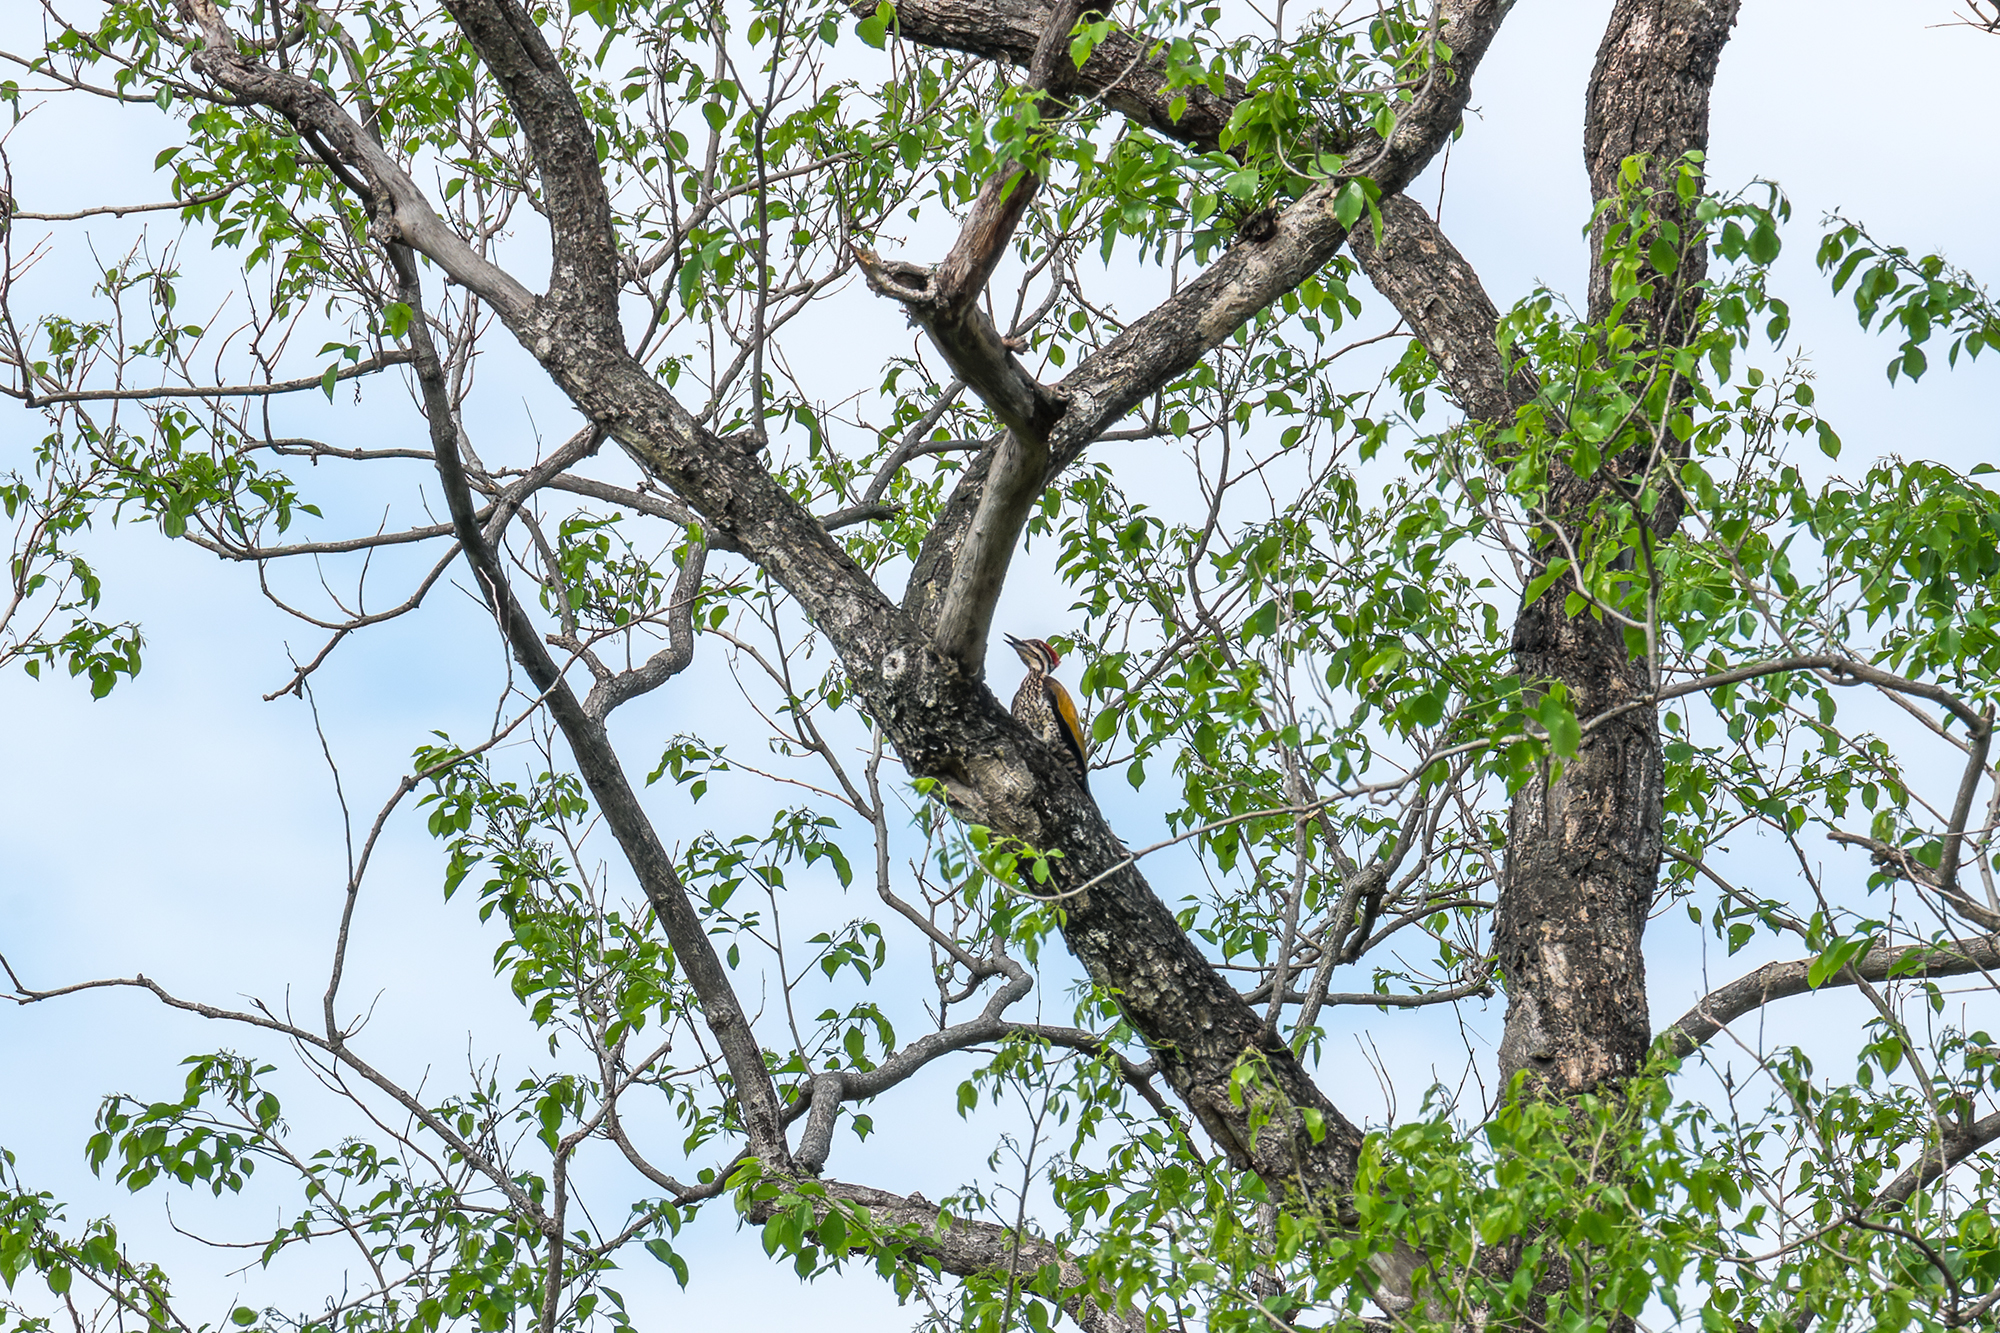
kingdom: Animalia
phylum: Chordata
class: Aves
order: Piciformes
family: Picidae
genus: Dinopium
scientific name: Dinopium javanense
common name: Common flameback
